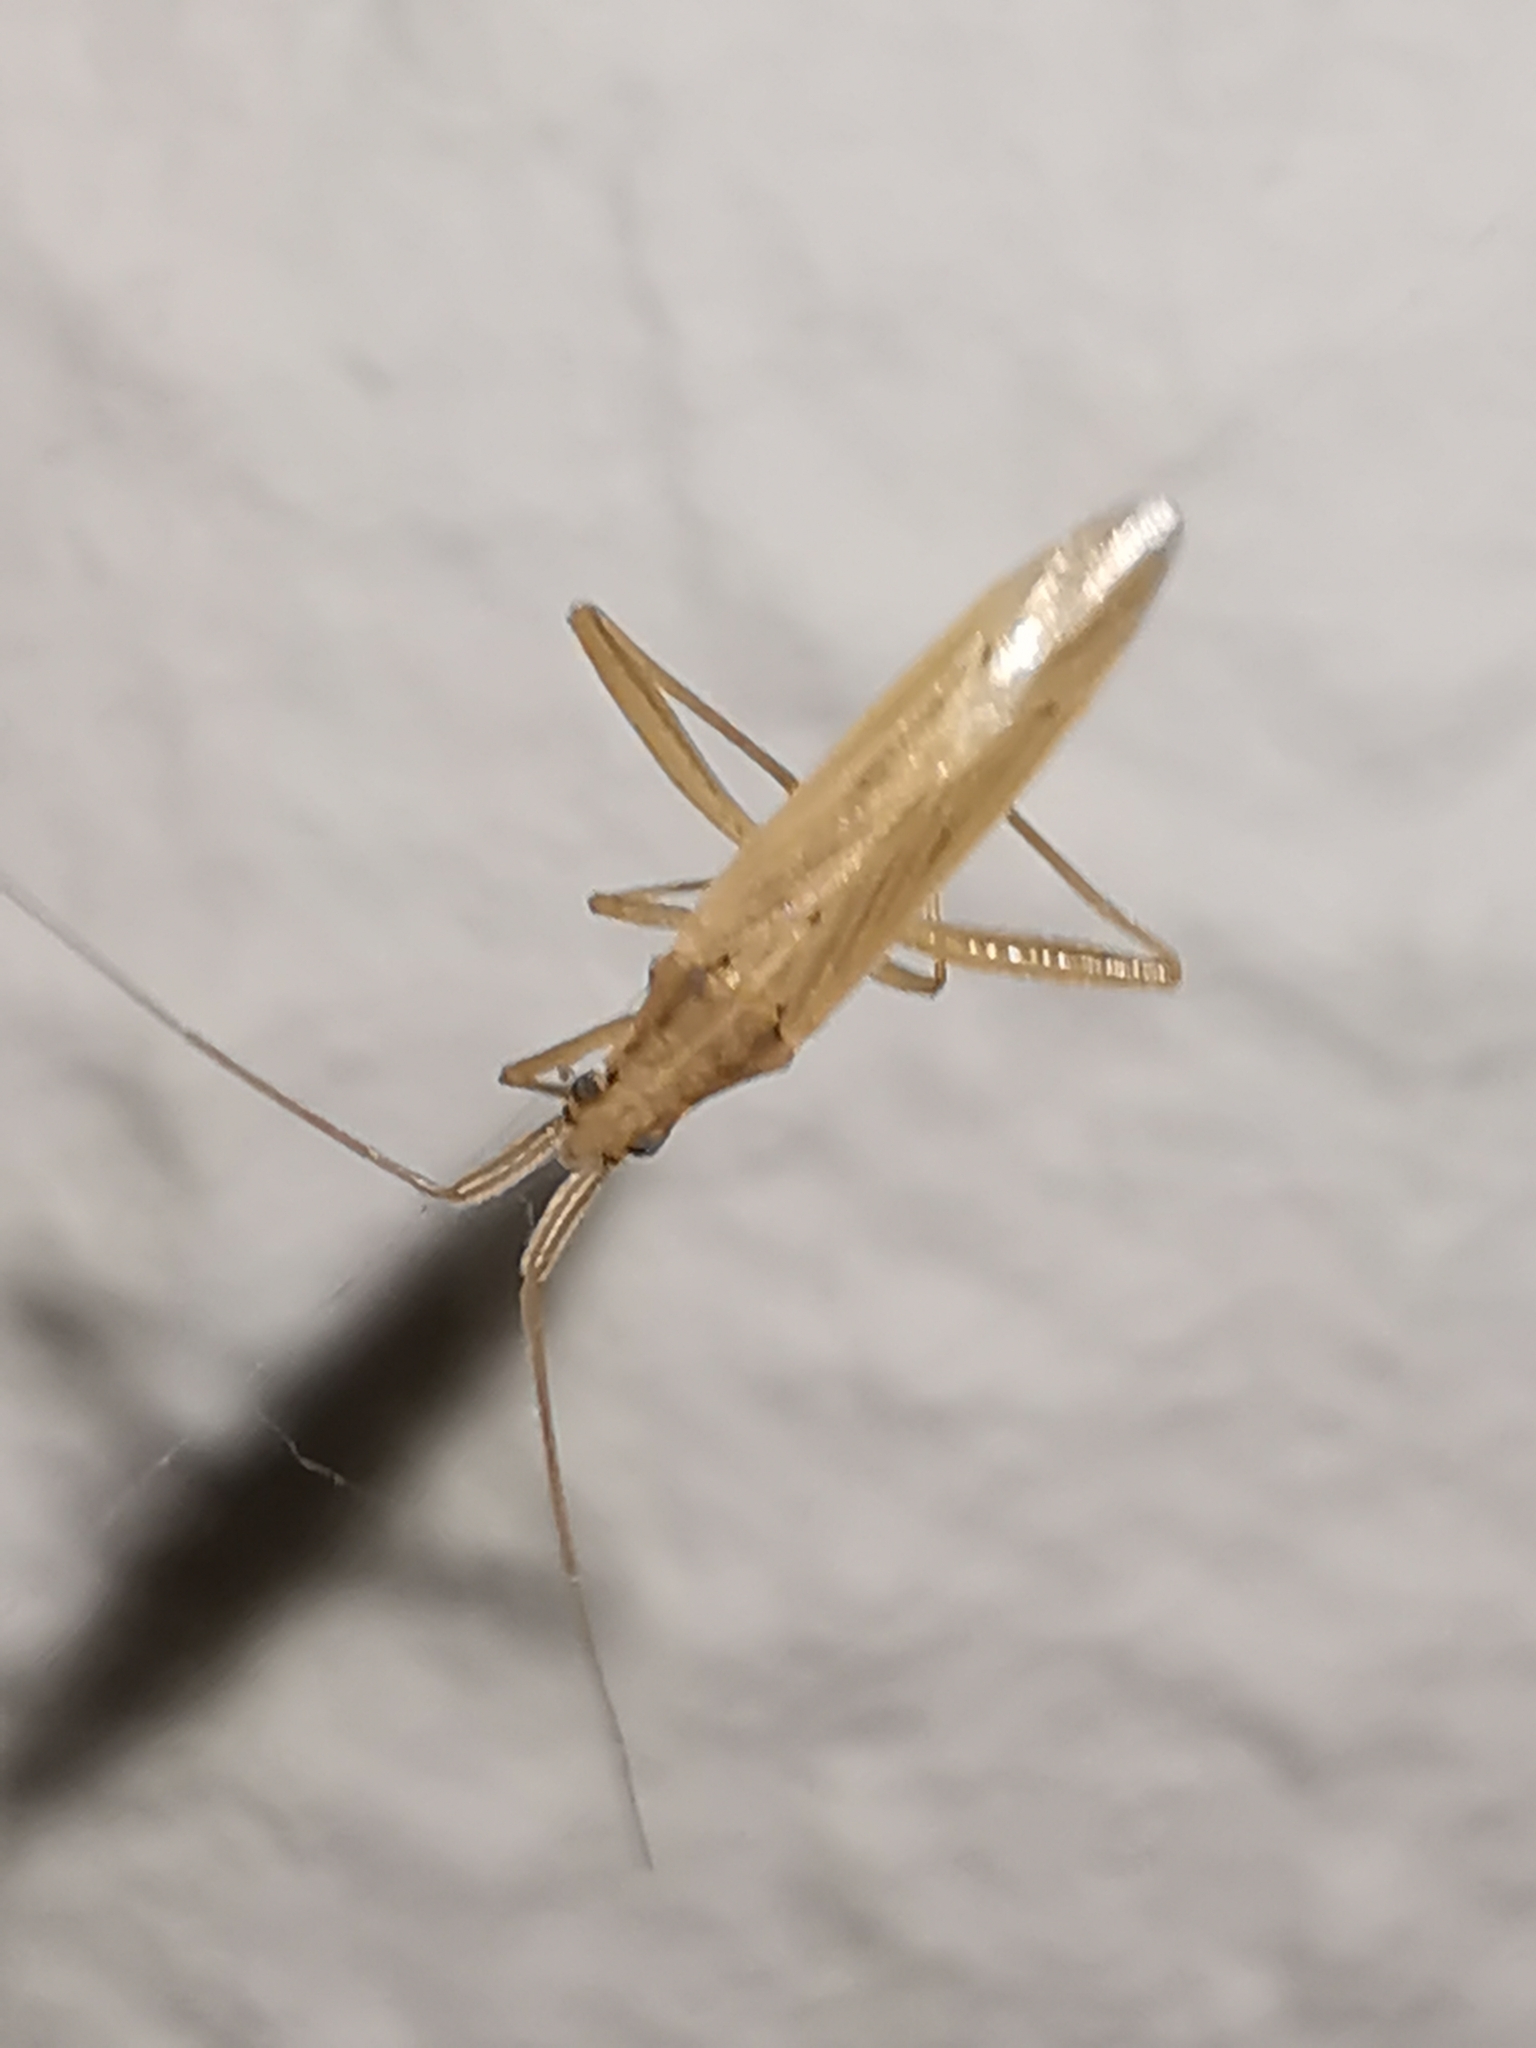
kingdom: Animalia
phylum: Arthropoda
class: Insecta
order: Hemiptera
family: Miridae
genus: Stenodema
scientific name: Stenodema laevigata
